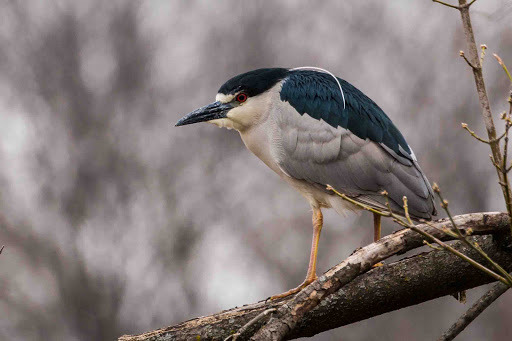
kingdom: Animalia
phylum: Chordata
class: Aves
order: Pelecaniformes
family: Ardeidae
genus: Nycticorax
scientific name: Nycticorax nycticorax
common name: Black-crowned night heron
